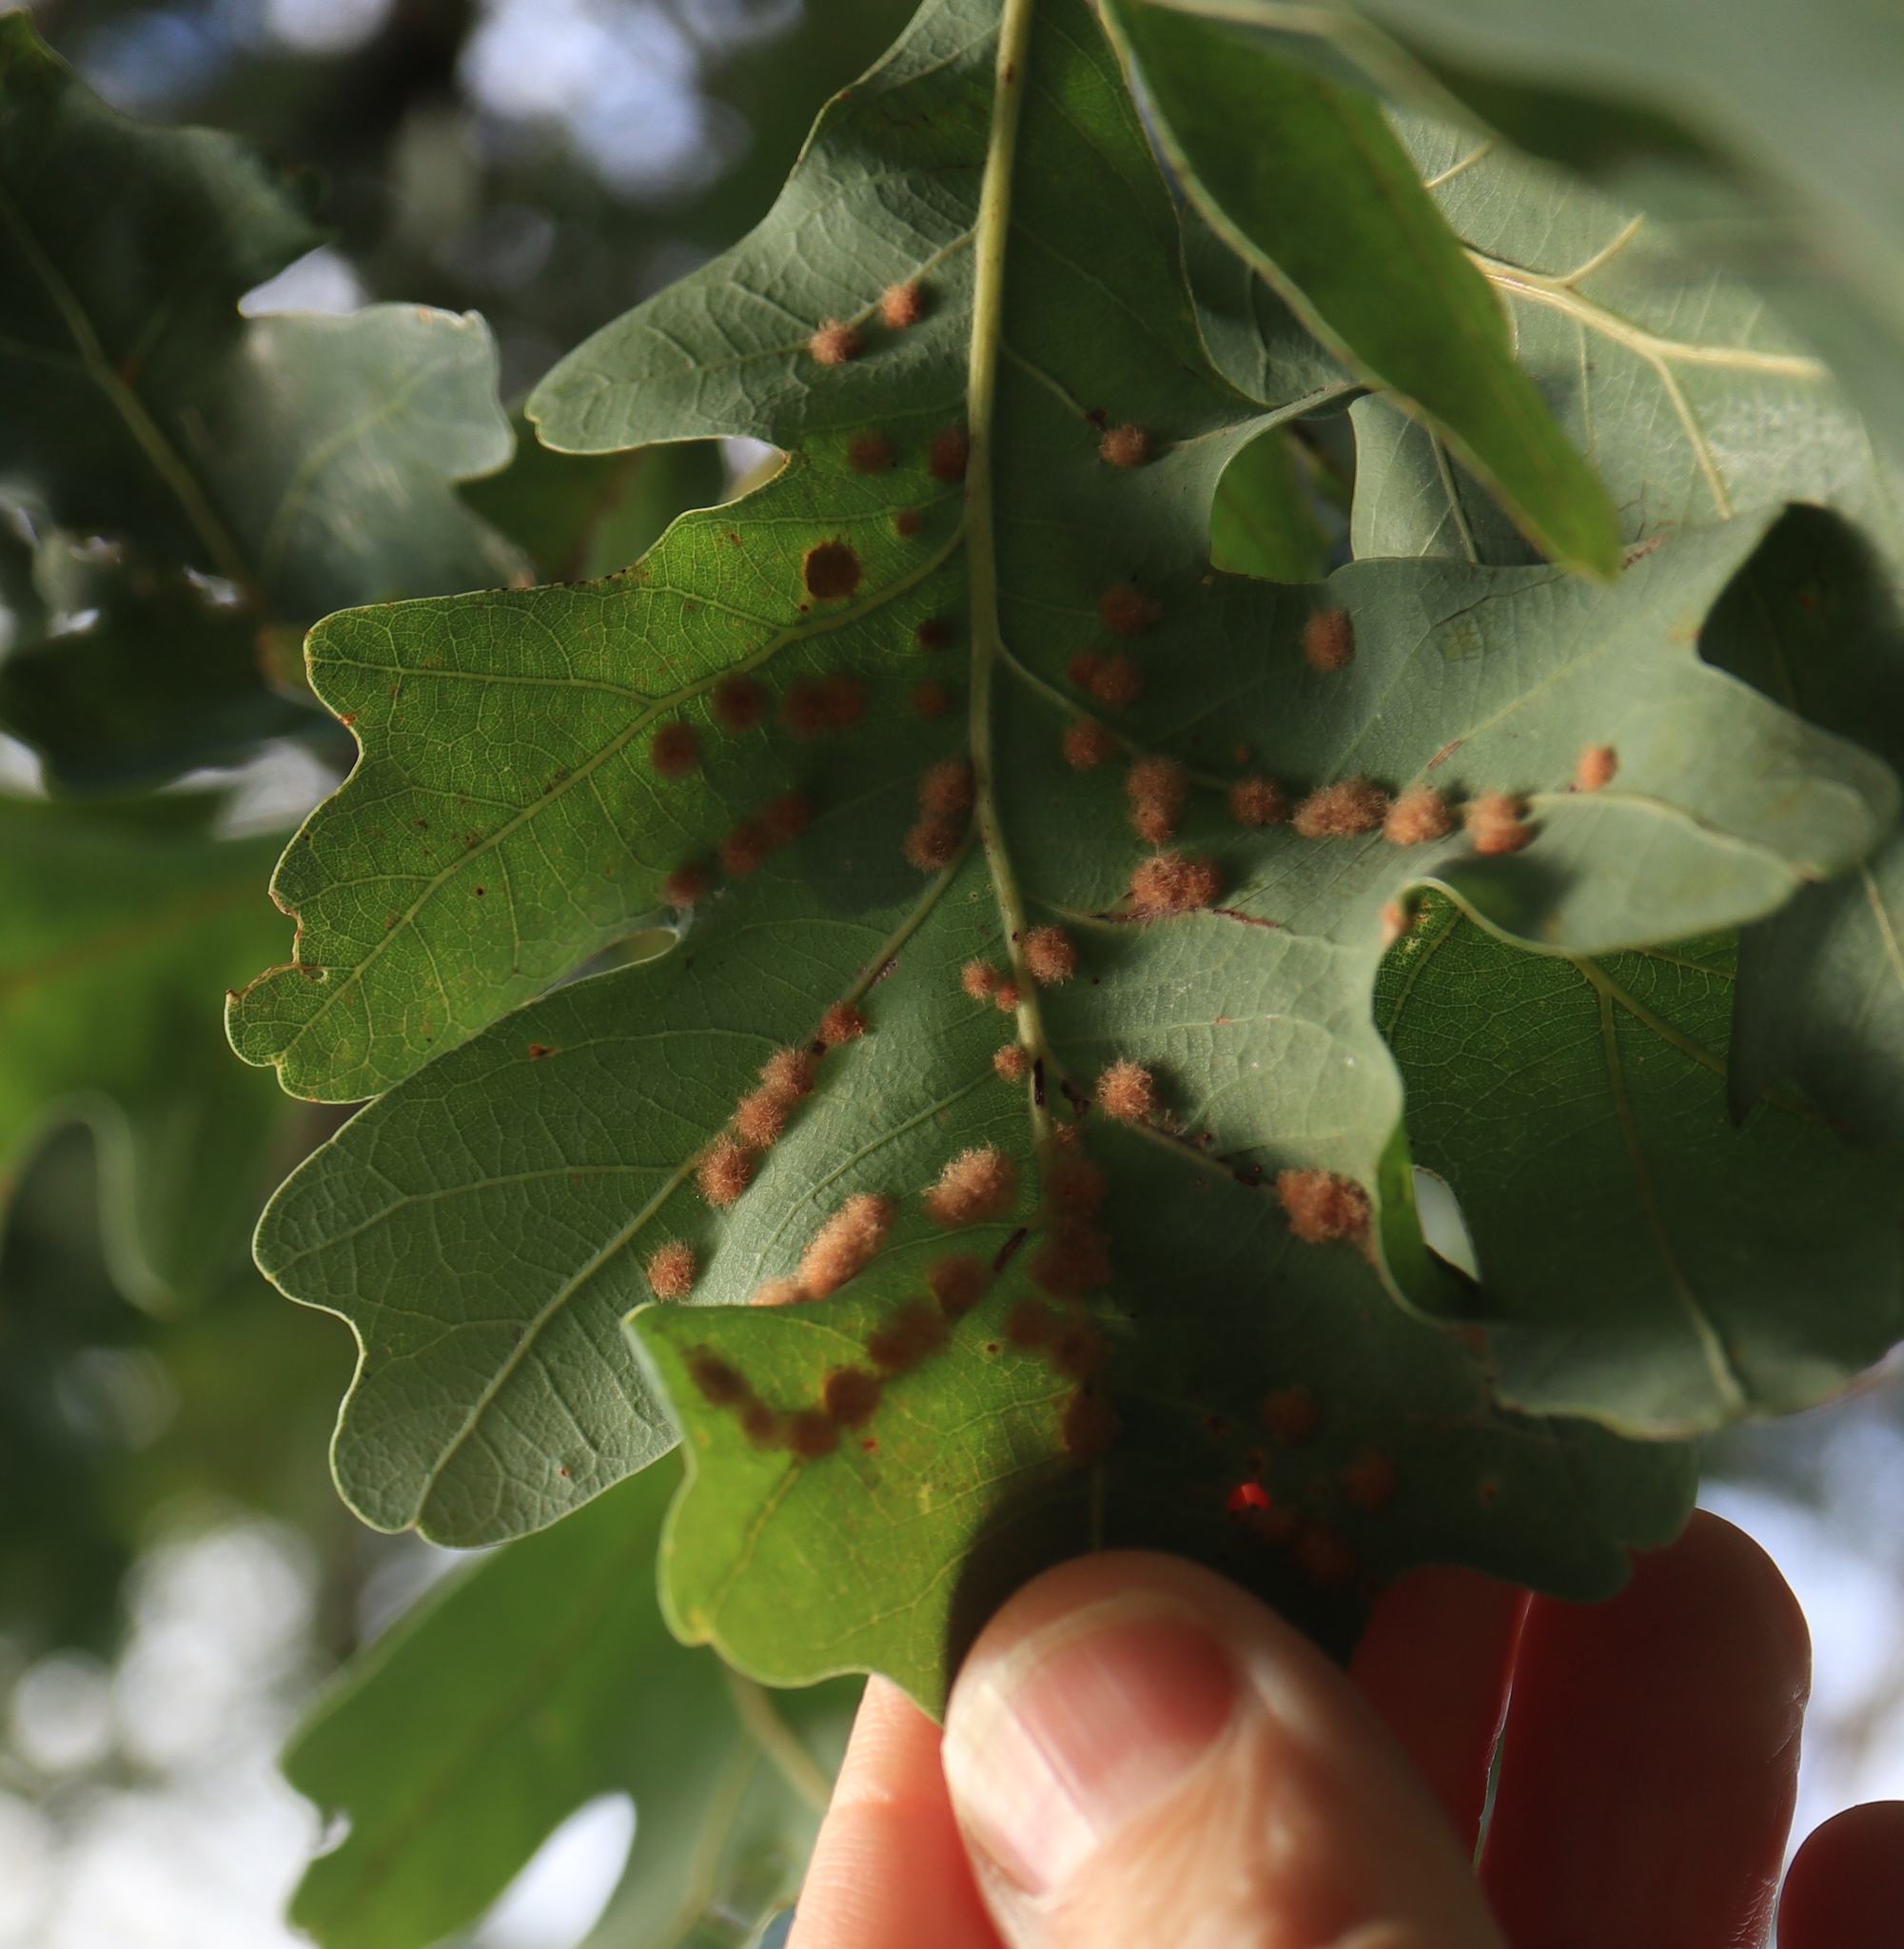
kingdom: Animalia
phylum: Arthropoda
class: Insecta
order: Hymenoptera
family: Cynipidae
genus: Neuroterus
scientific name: Neuroterus quercusverrucarum
